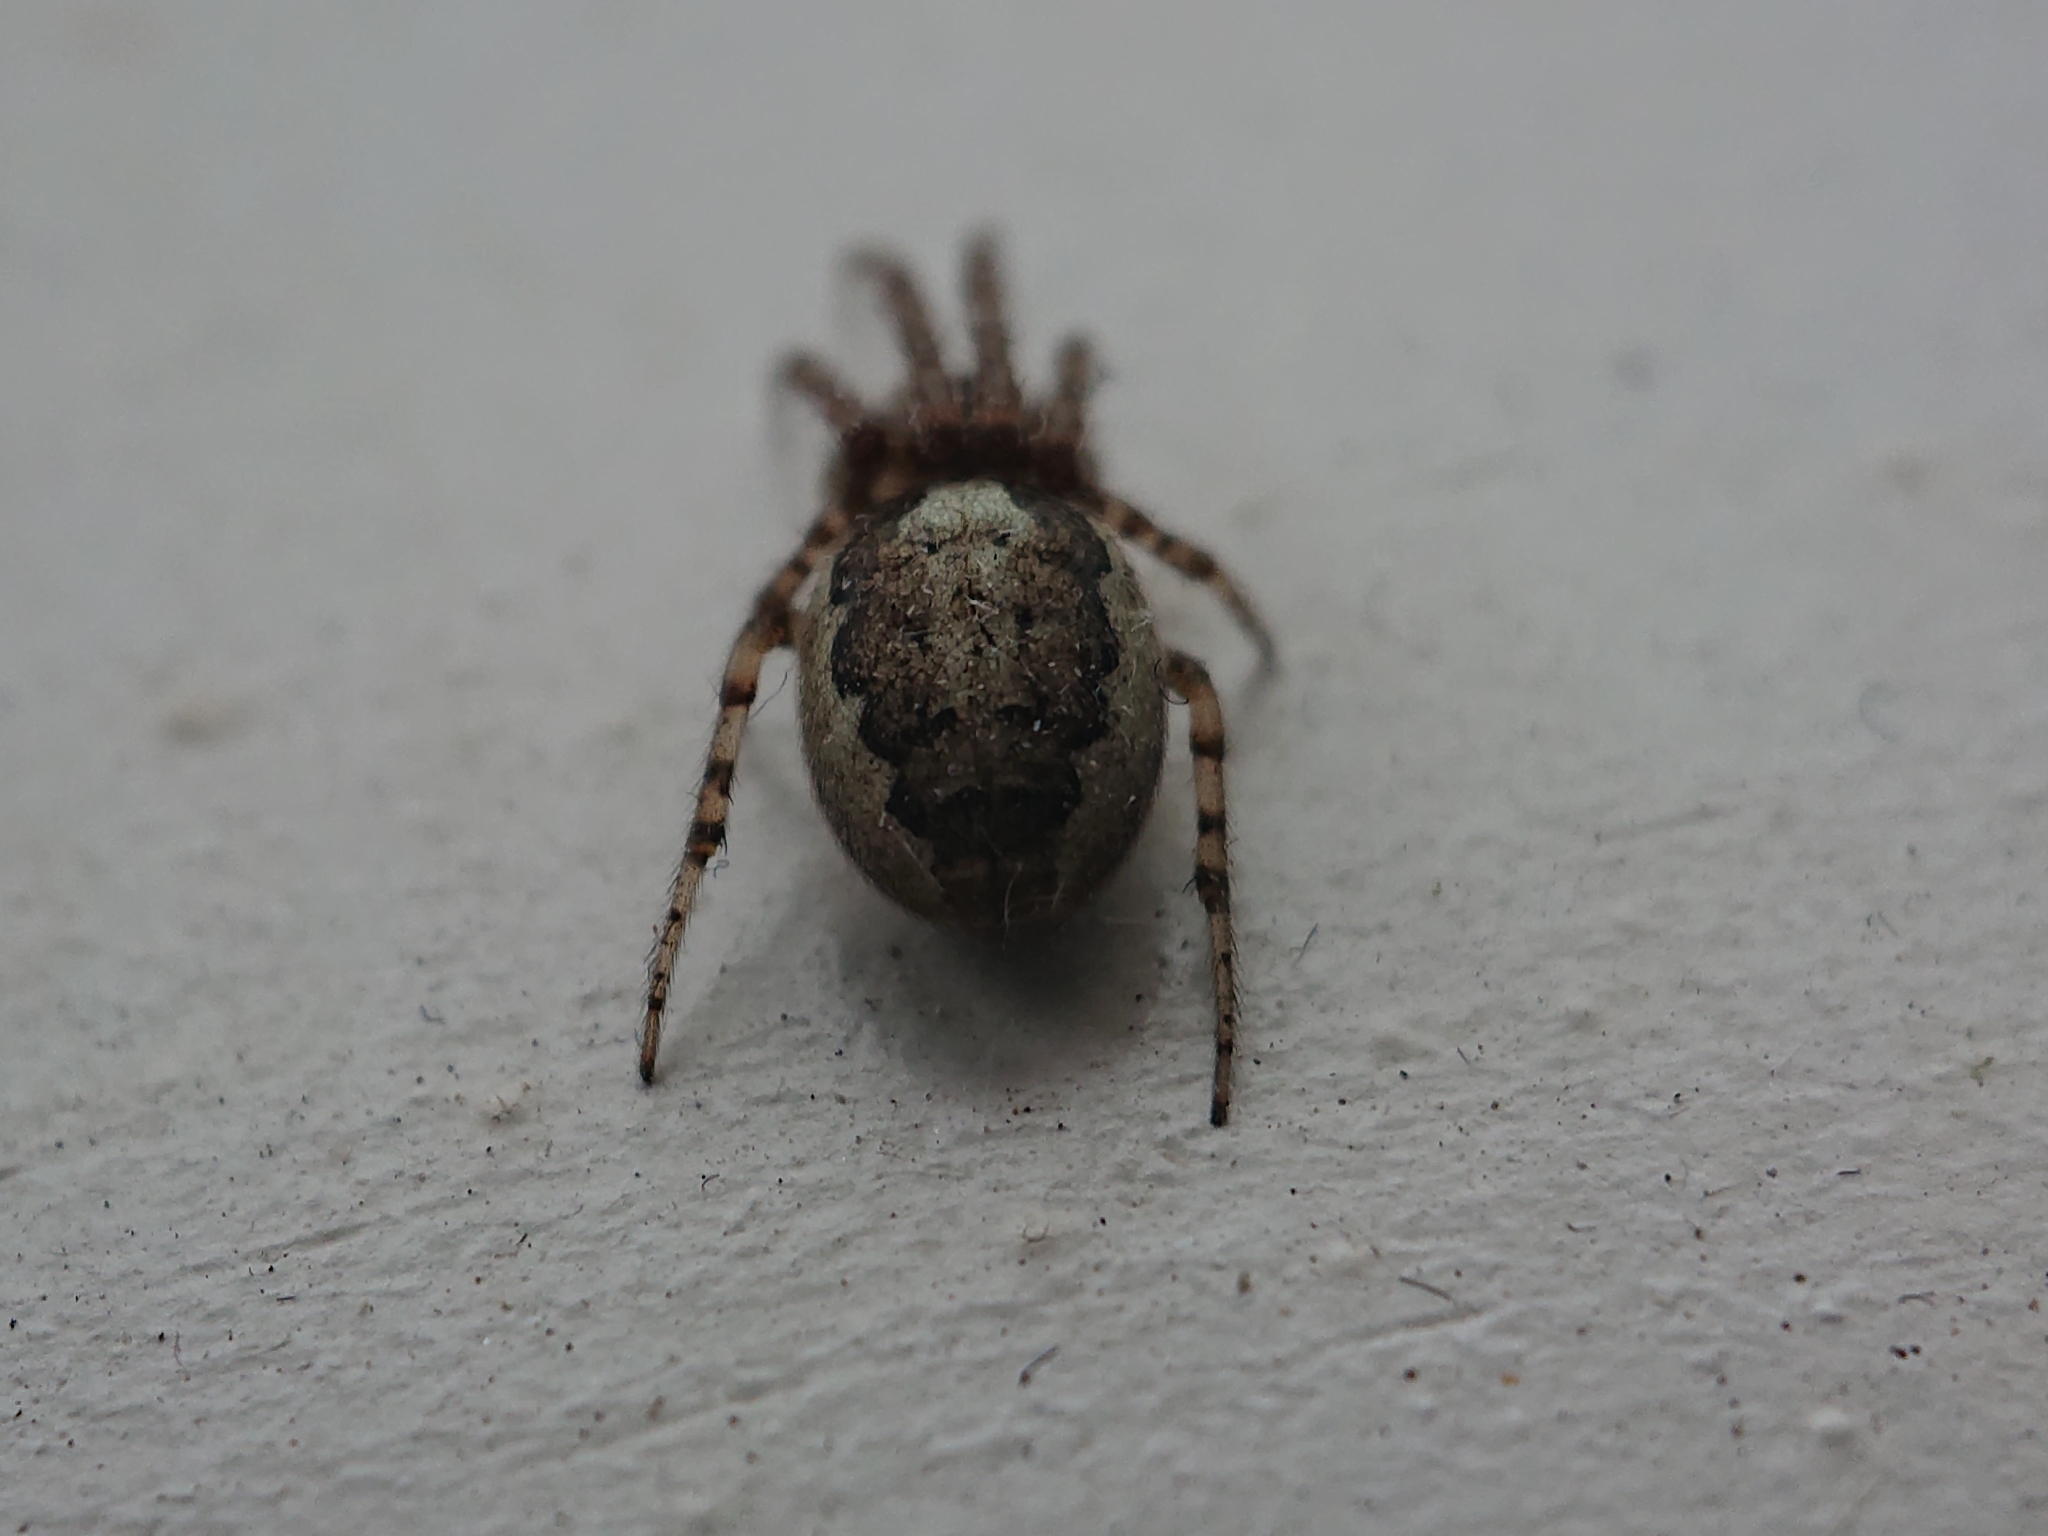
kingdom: Animalia
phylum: Arthropoda
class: Arachnida
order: Araneae
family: Araneidae
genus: Zygiella
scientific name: Zygiella x-notata
